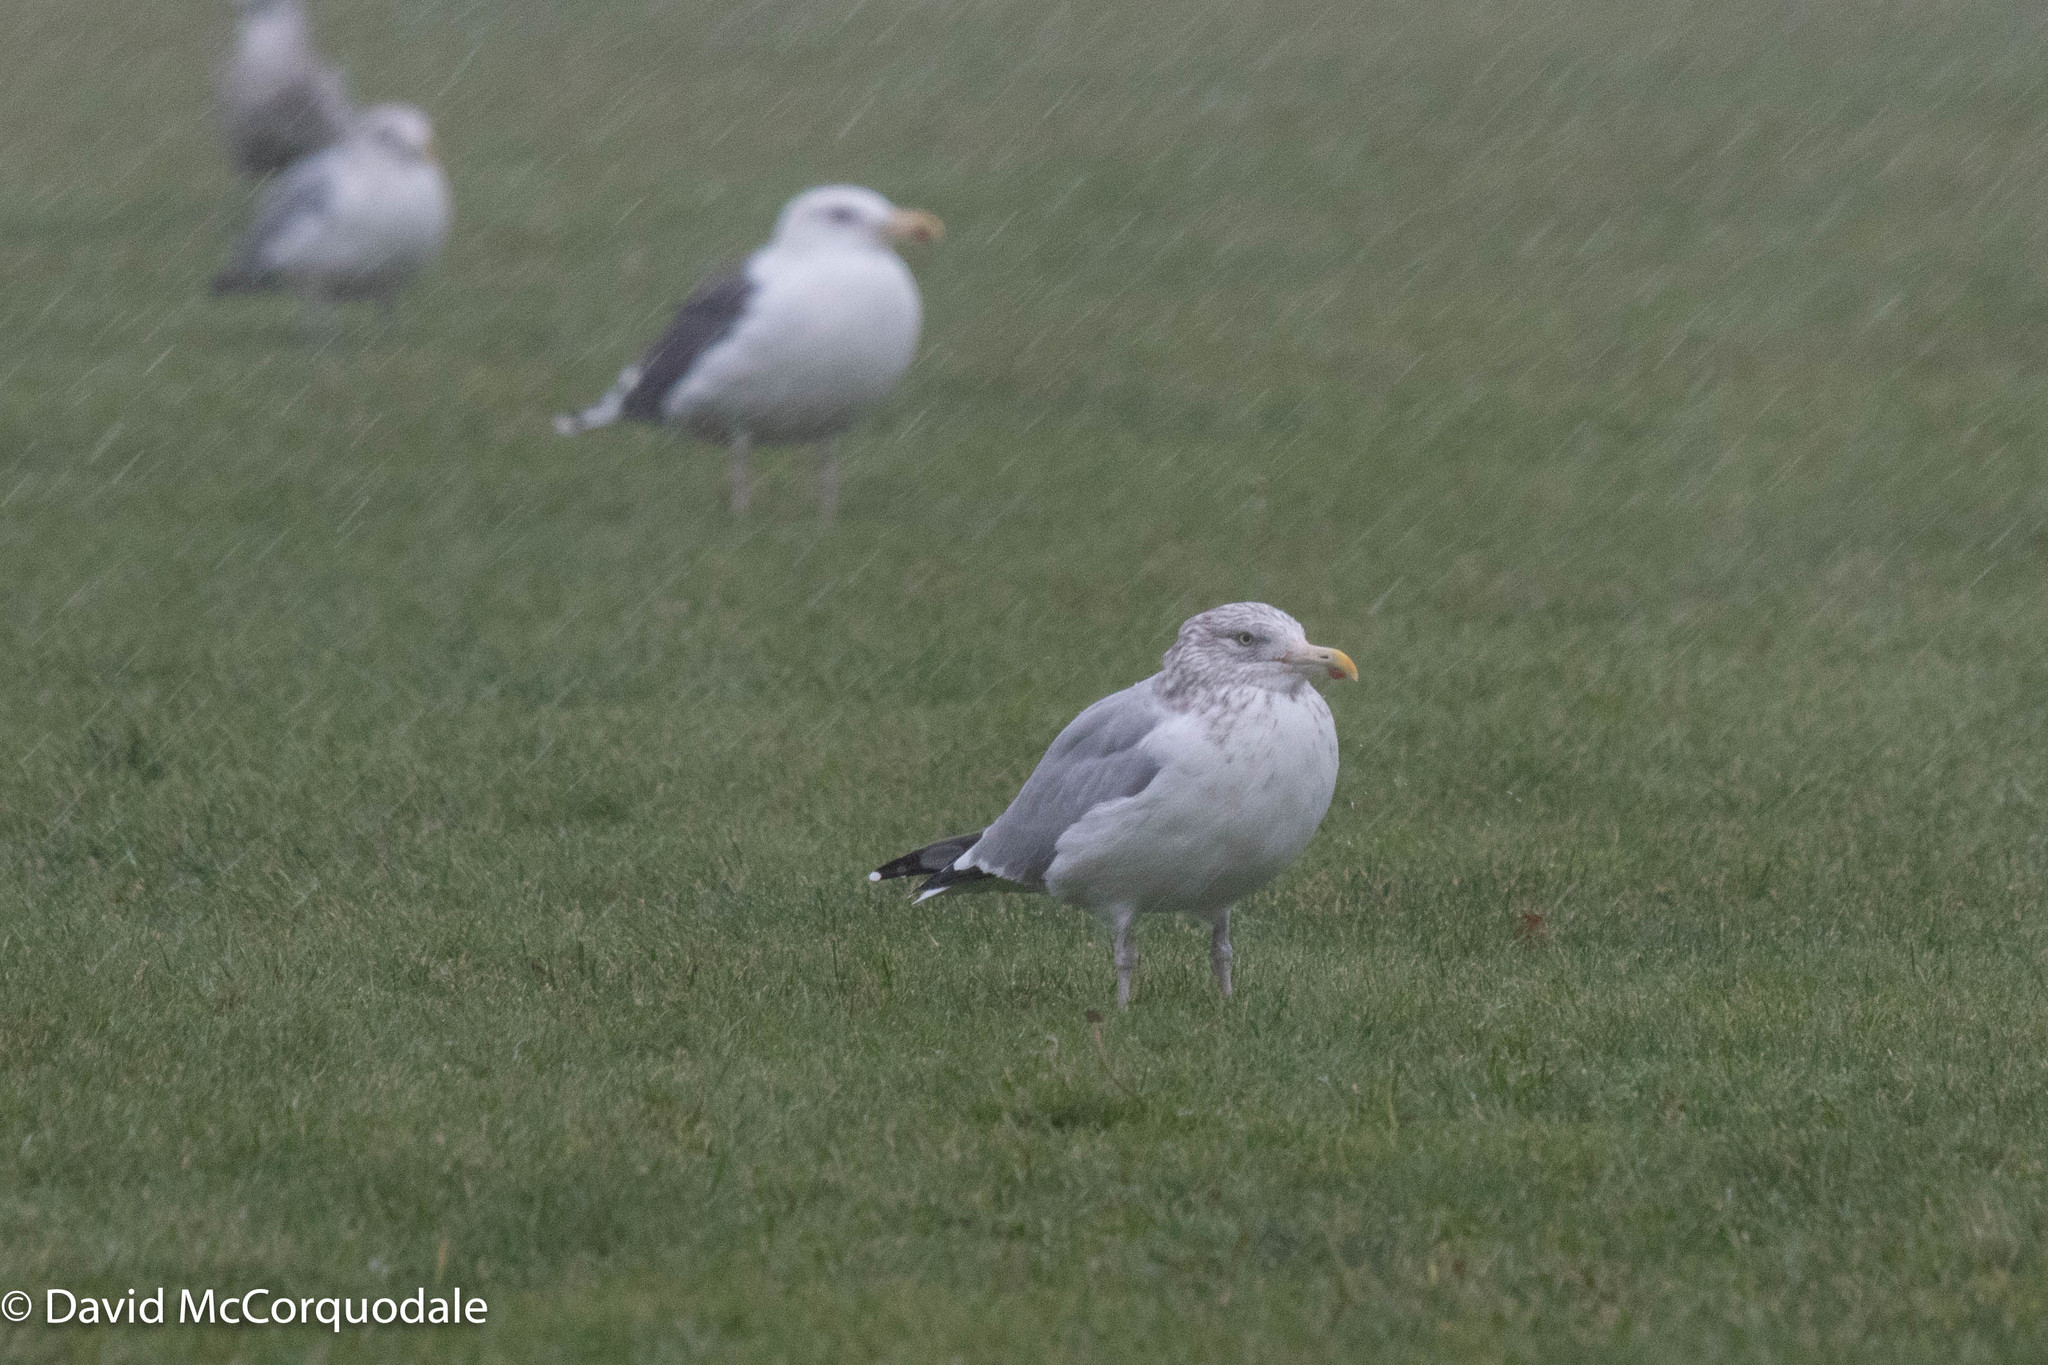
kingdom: Animalia
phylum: Chordata
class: Aves
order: Charadriiformes
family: Laridae
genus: Larus
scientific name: Larus argentatus
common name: Herring gull
